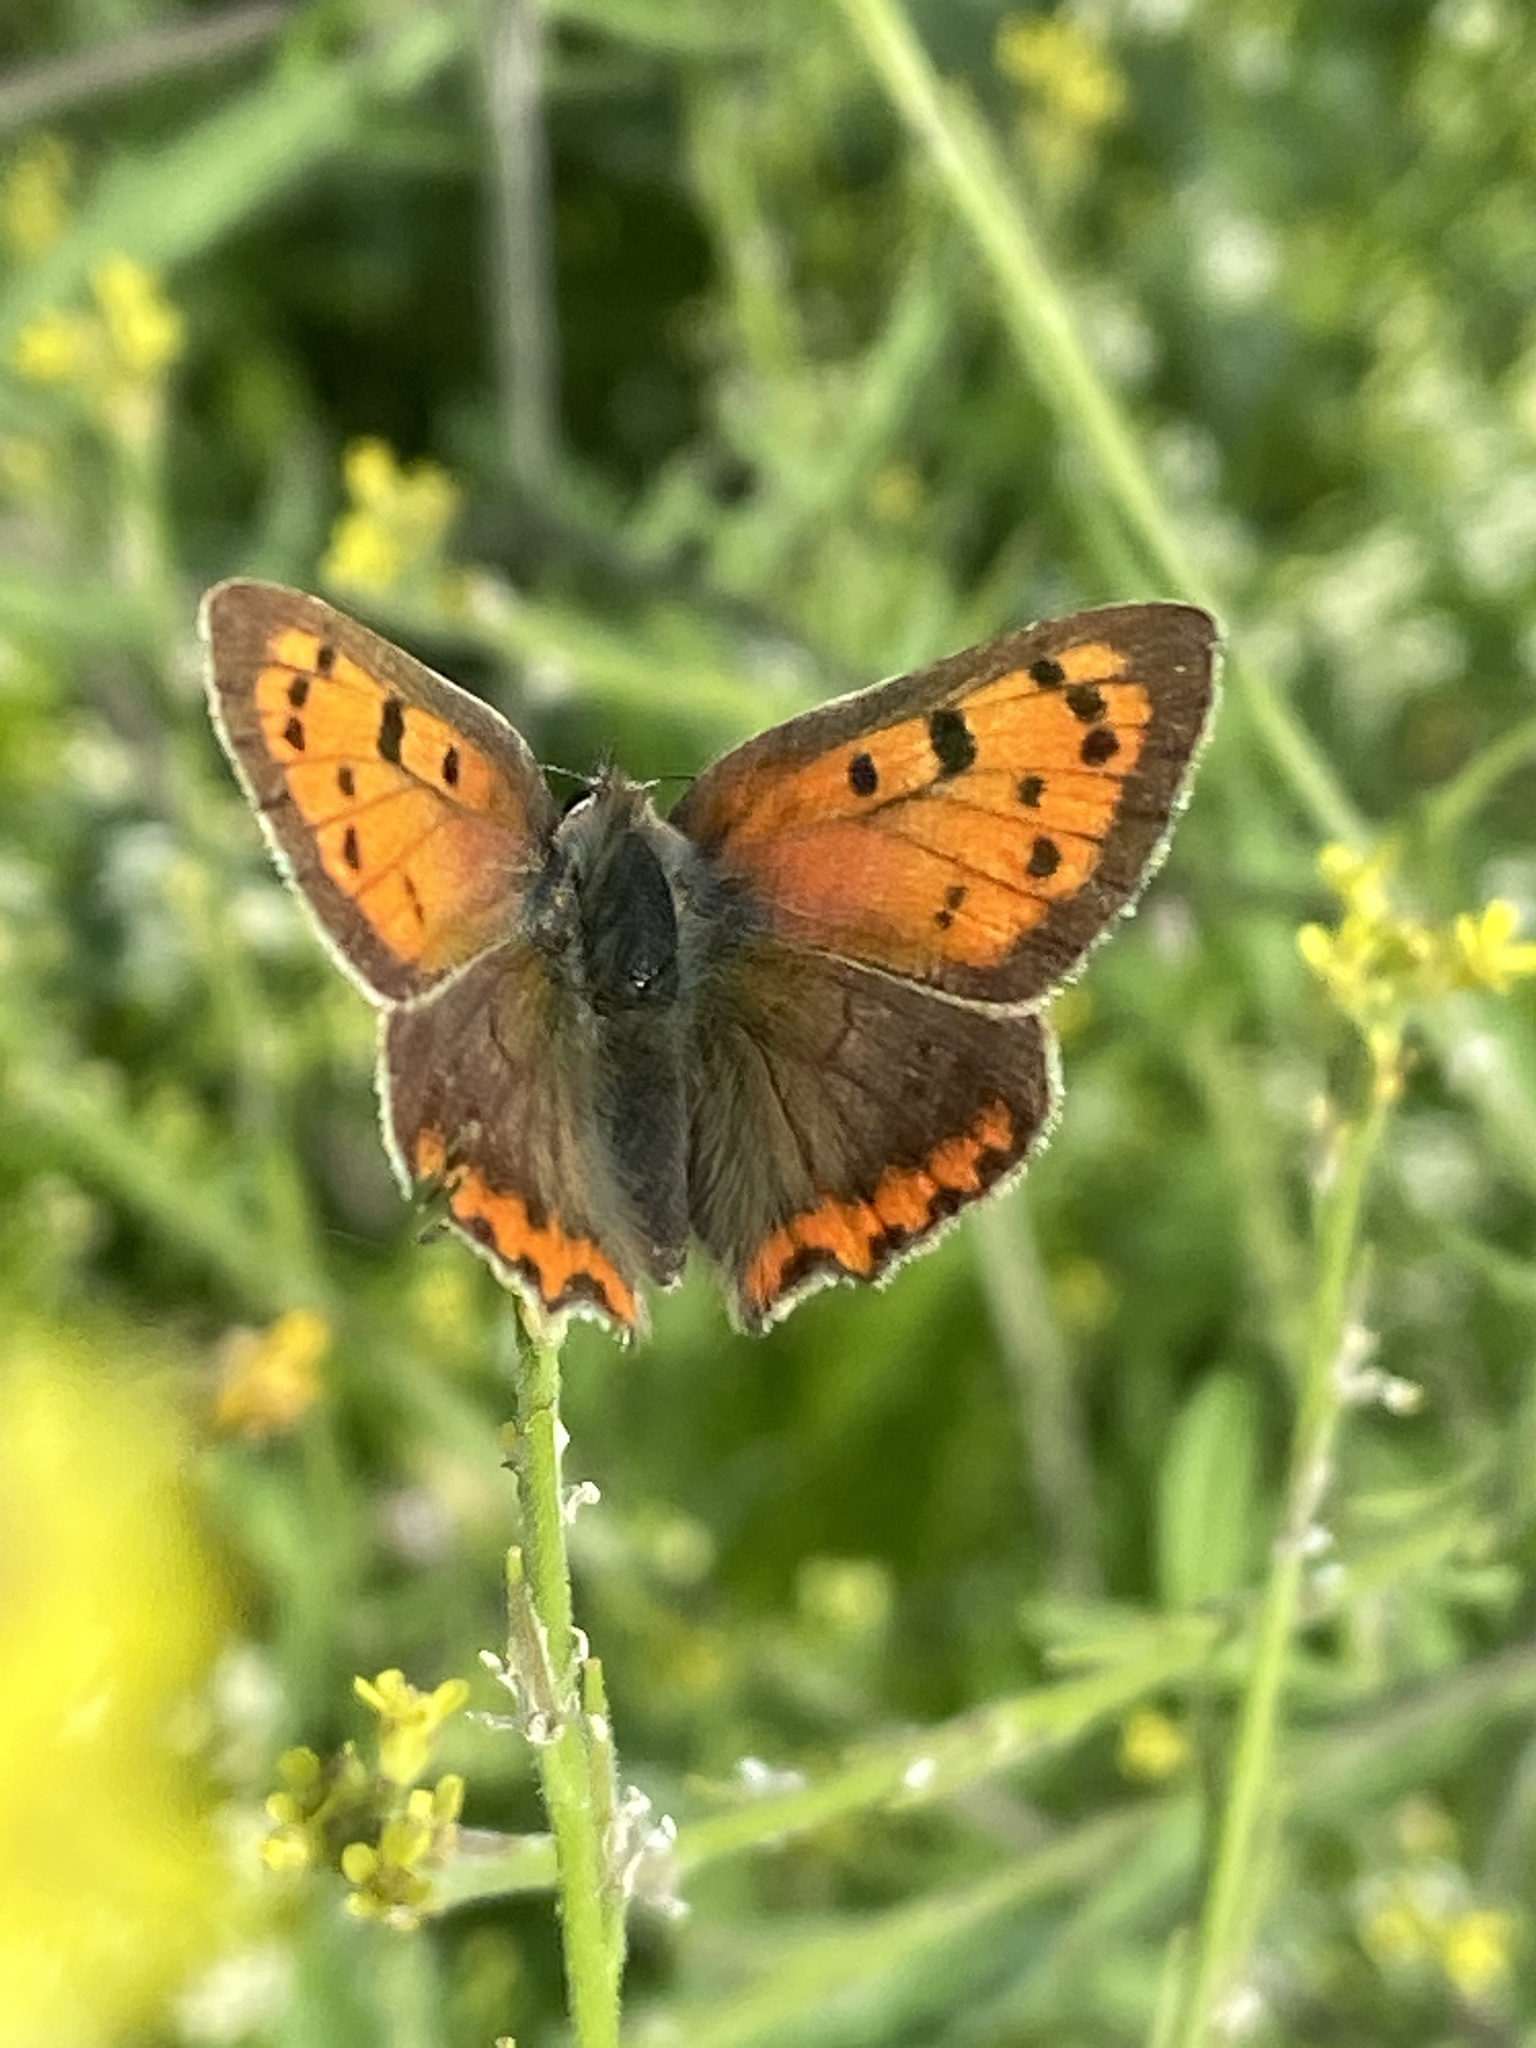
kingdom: Animalia
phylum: Arthropoda
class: Insecta
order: Lepidoptera
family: Lycaenidae
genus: Lycaena
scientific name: Lycaena phlaeas
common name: Small copper
